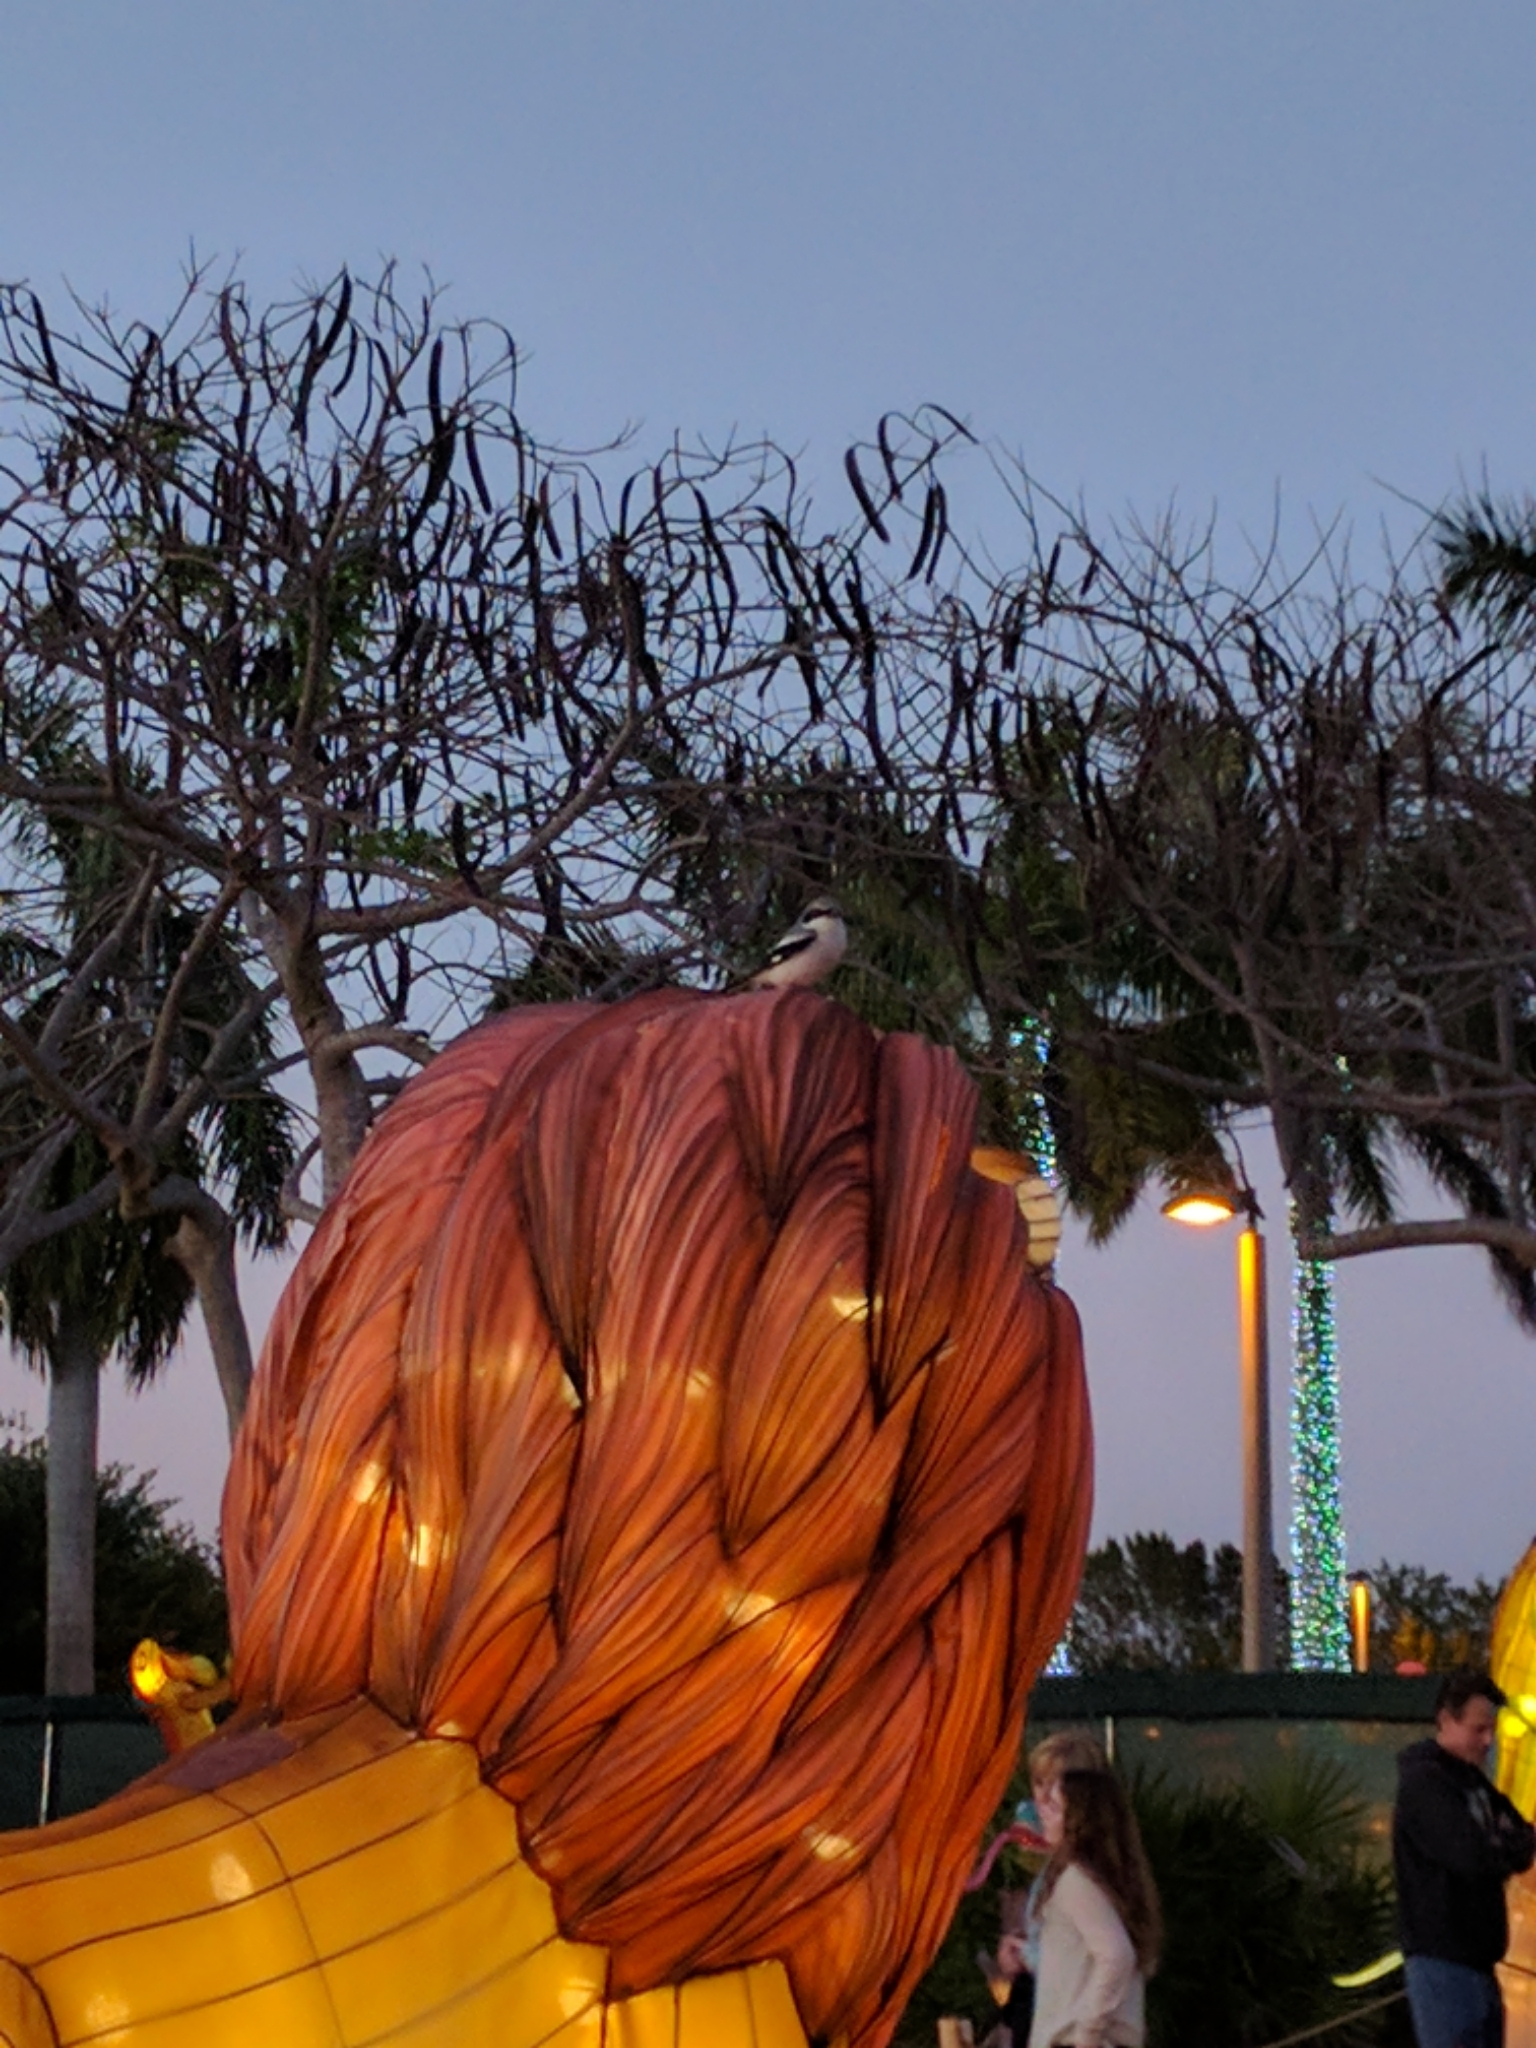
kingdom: Animalia
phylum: Chordata
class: Aves
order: Passeriformes
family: Laniidae
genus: Lanius
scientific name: Lanius ludovicianus
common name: Loggerhead shrike
